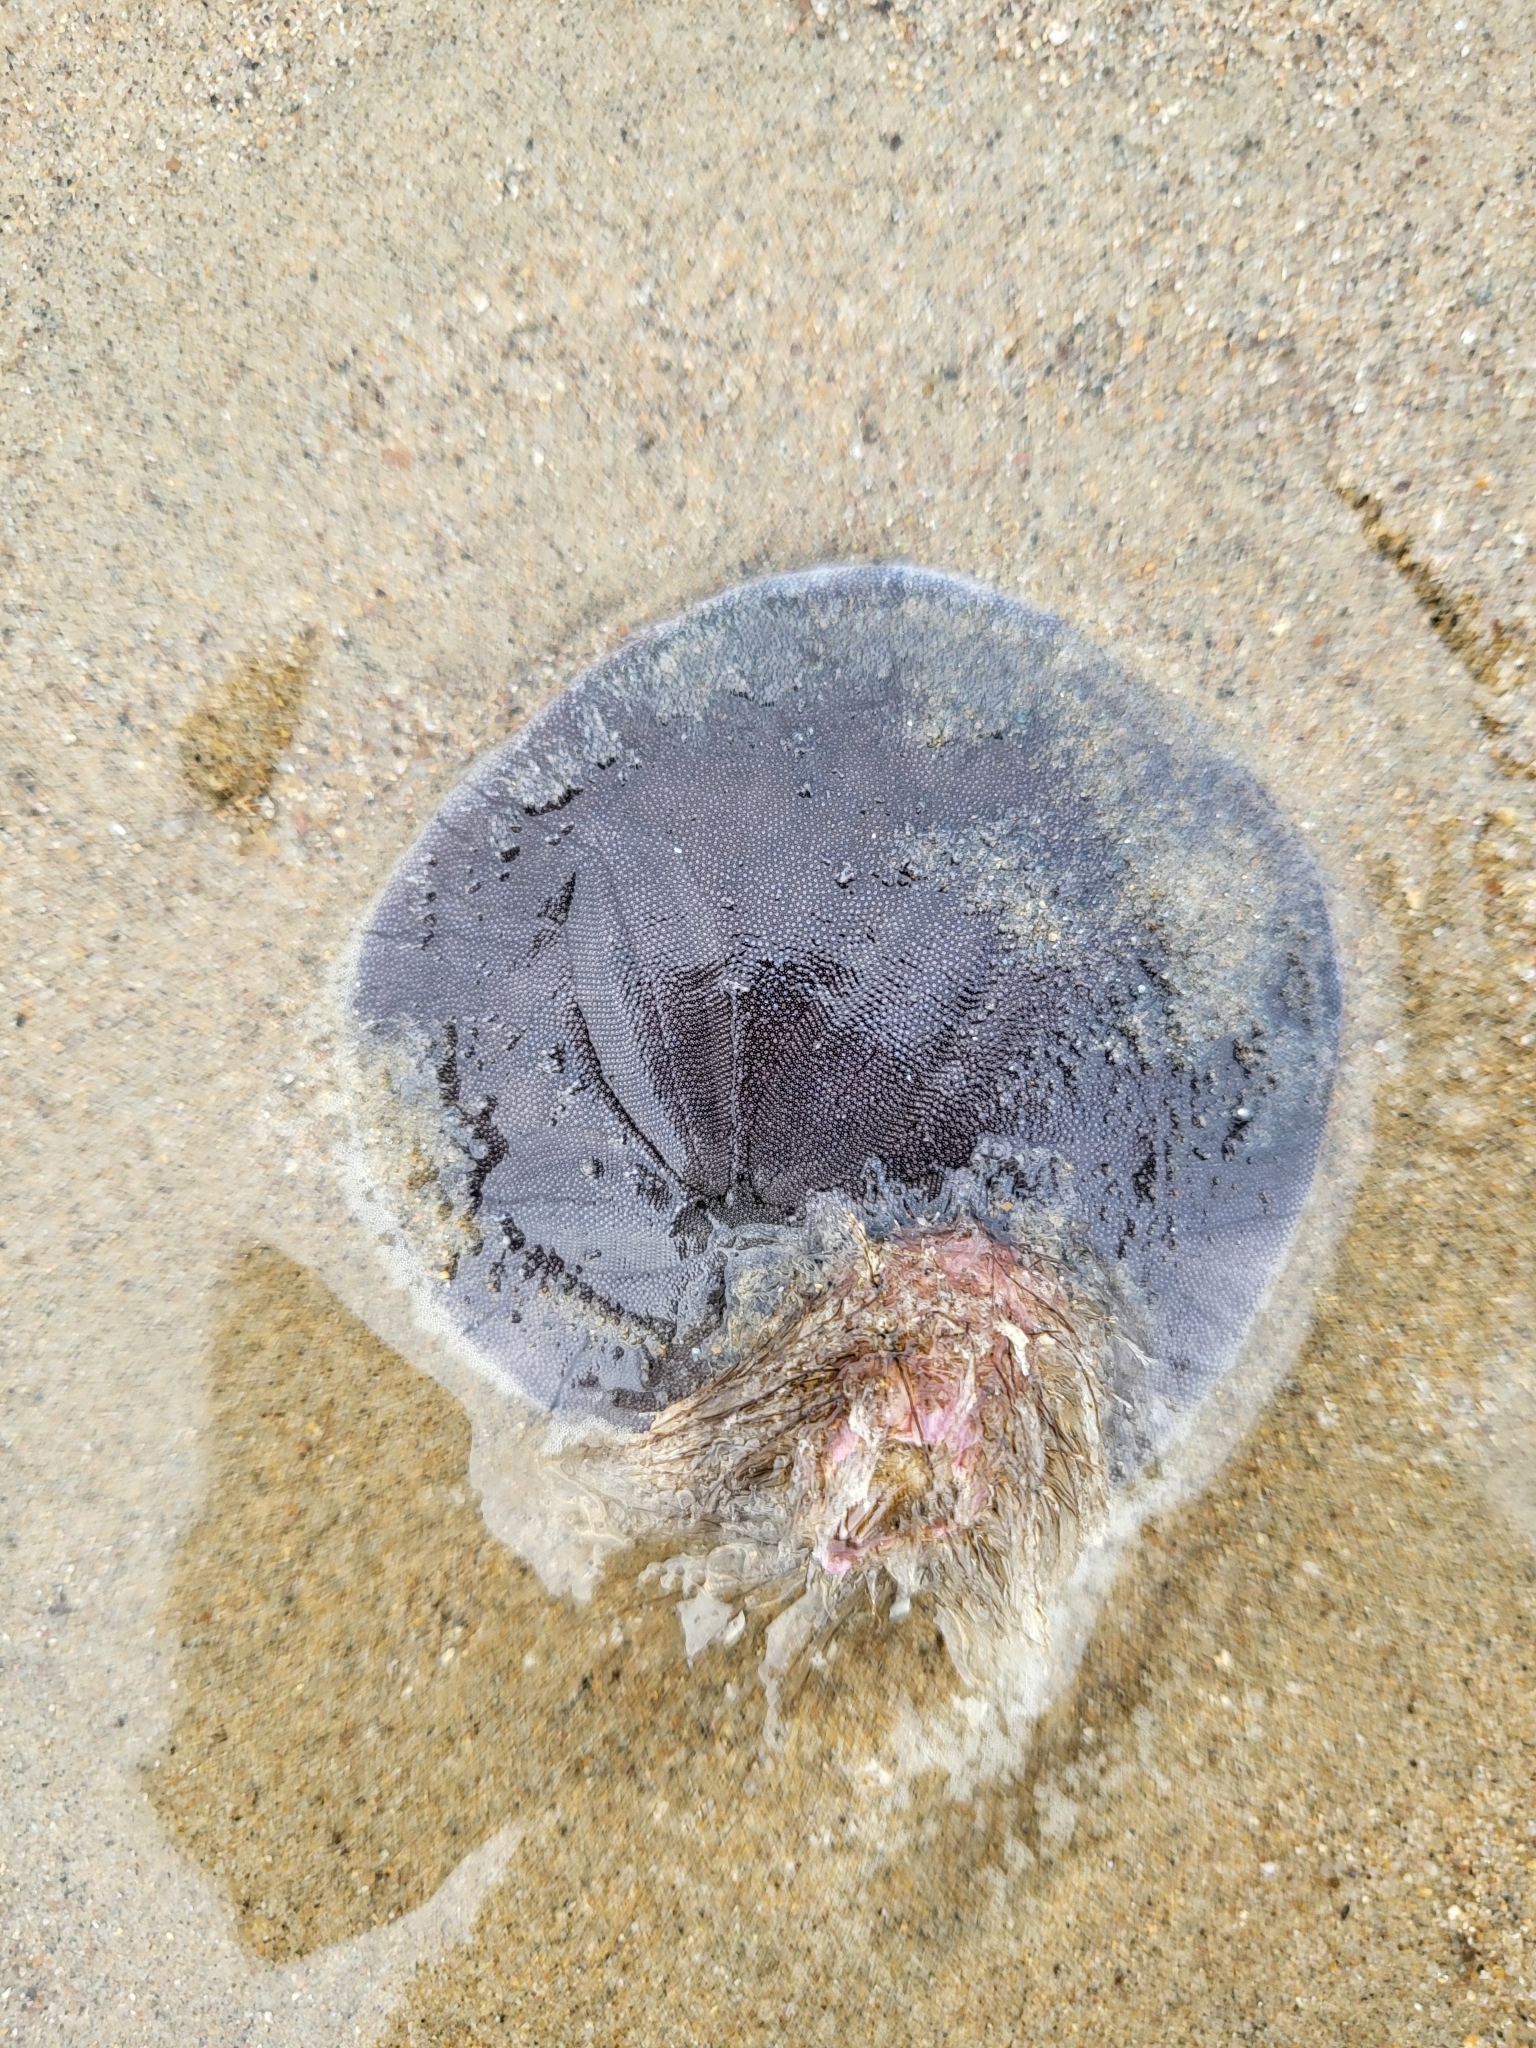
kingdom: Animalia
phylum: Arthropoda
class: Maxillopoda
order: Sessilia
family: Balanidae
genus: Paraconcavus
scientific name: Paraconcavus pacificus
